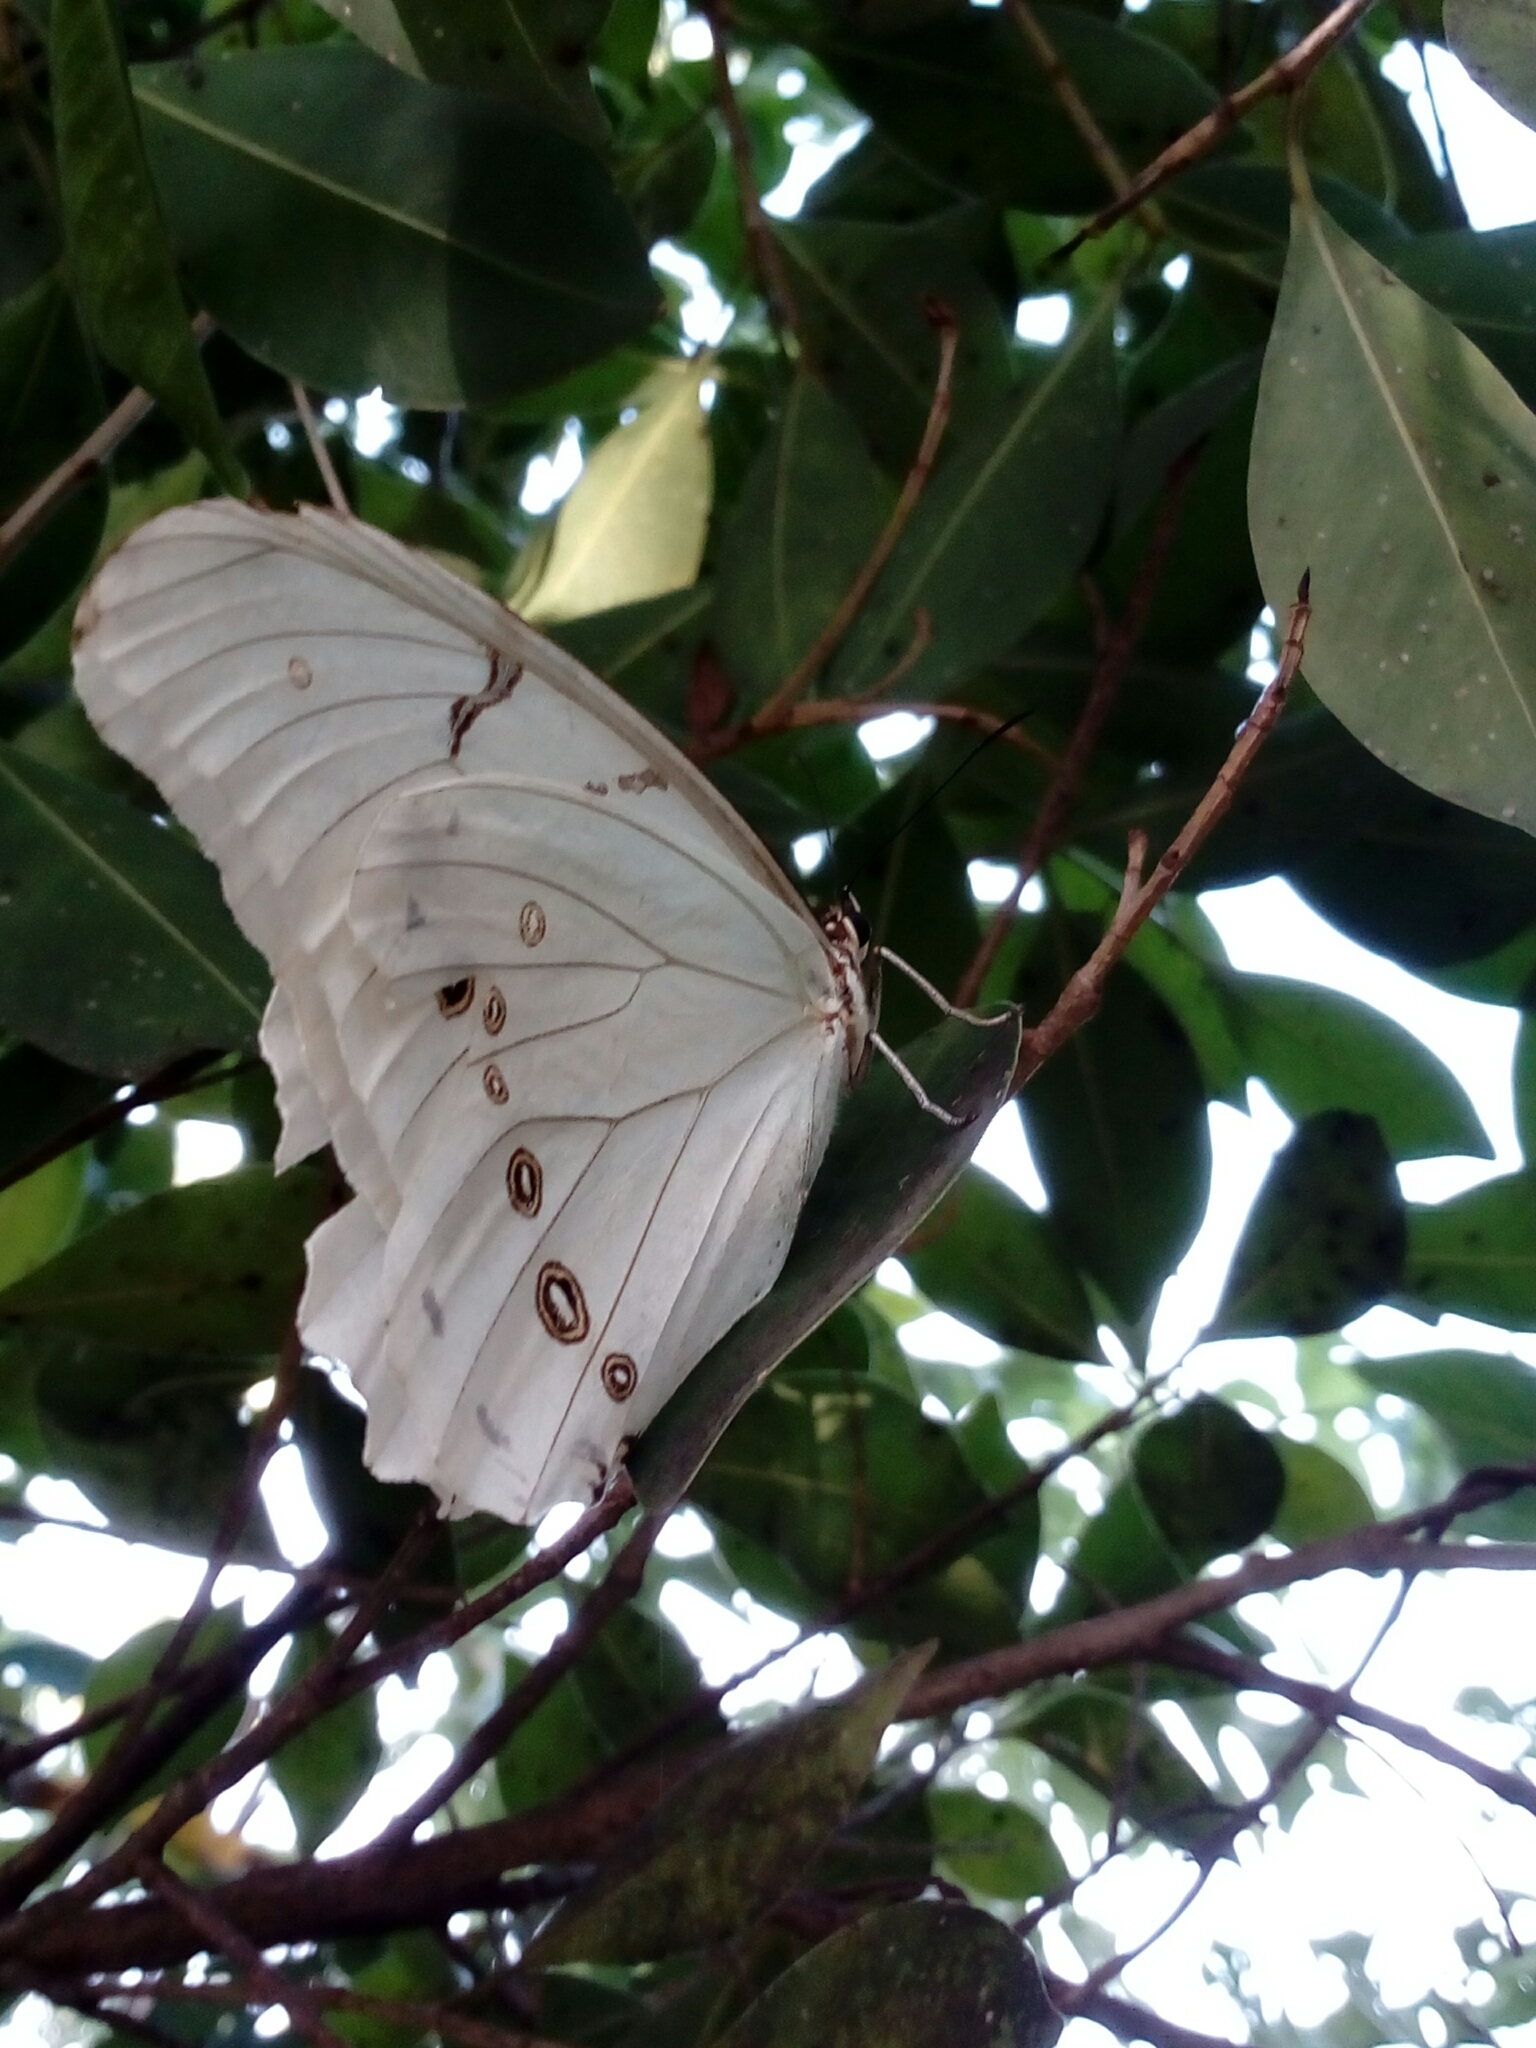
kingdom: Animalia
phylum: Arthropoda
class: Insecta
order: Lepidoptera
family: Nymphalidae
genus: Morpho
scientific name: Morpho polyphemus
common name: White morpho
